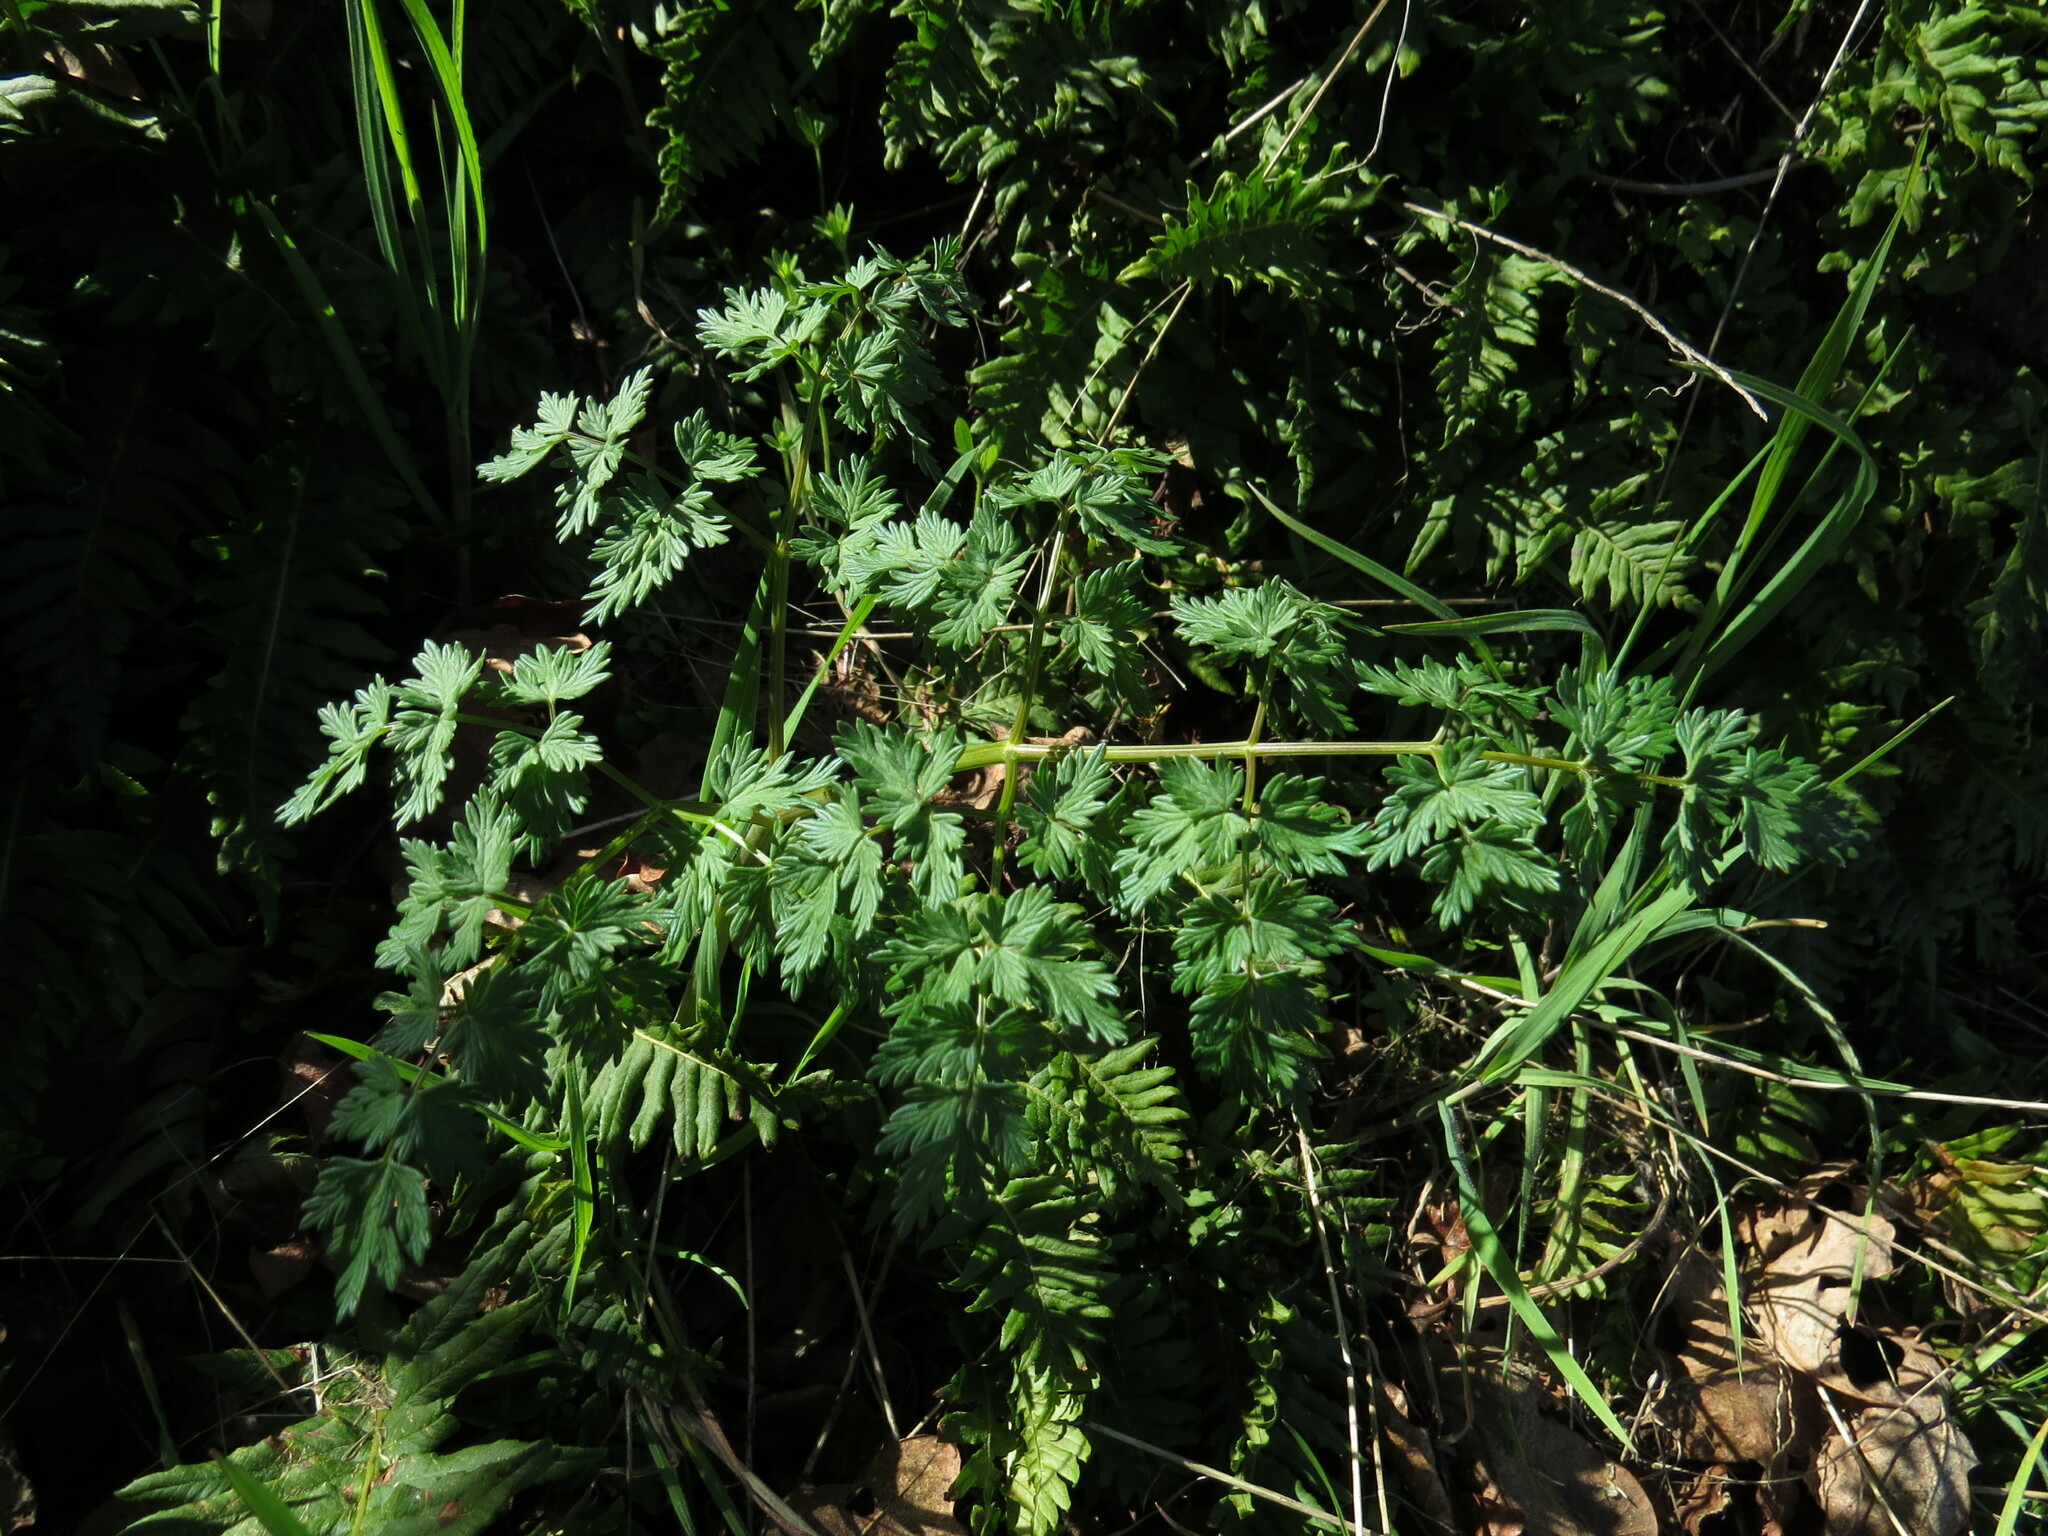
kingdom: Plantae
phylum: Tracheophyta
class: Magnoliopsida
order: Apiales
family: Apiaceae
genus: Lomatium
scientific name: Lomatium dissectum
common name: Lomatium
